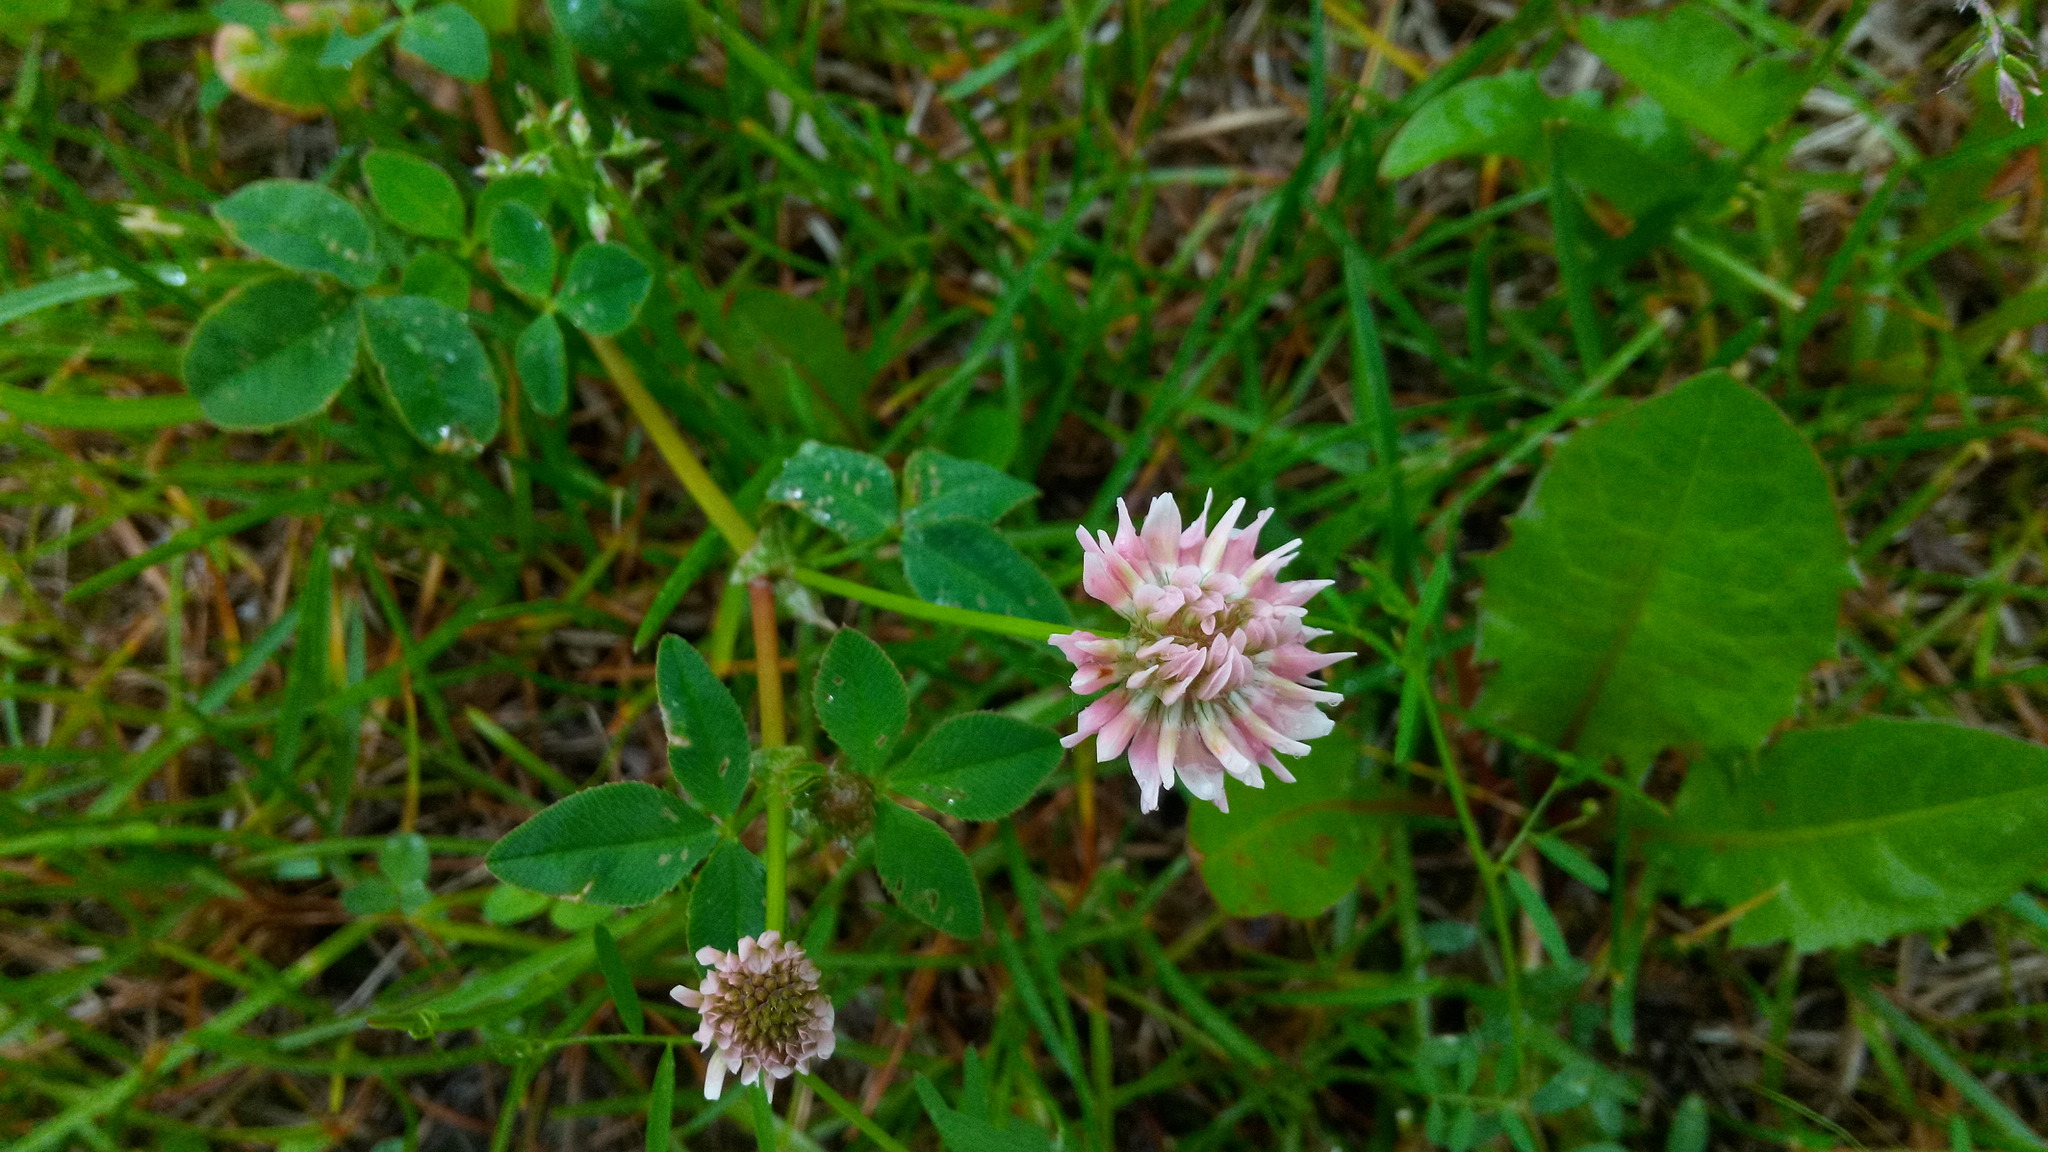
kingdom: Plantae
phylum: Tracheophyta
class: Magnoliopsida
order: Fabales
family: Fabaceae
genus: Trifolium
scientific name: Trifolium hybridum
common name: Alsike clover
